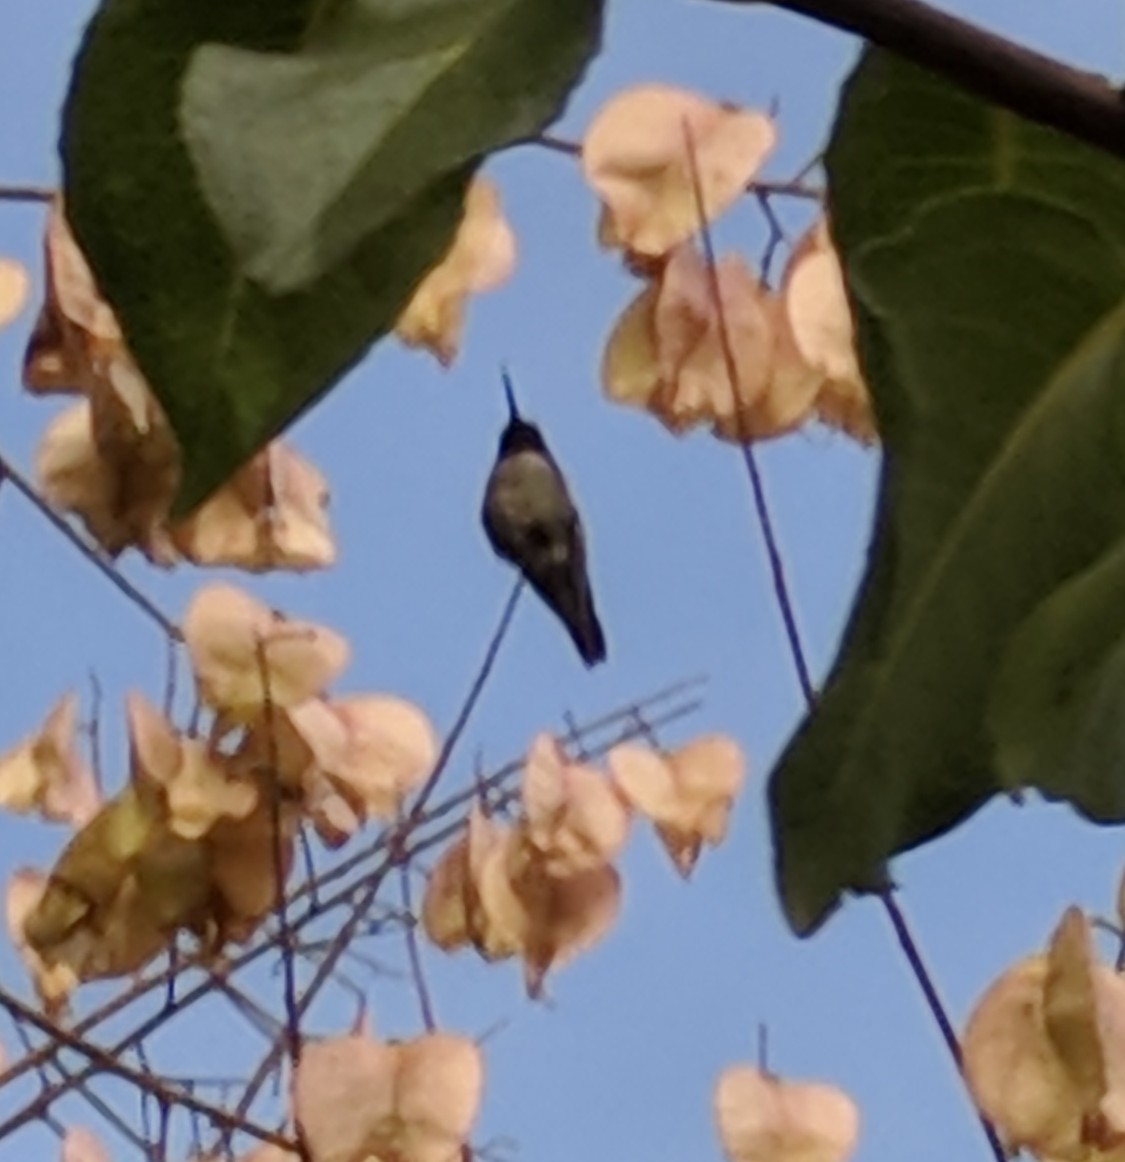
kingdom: Animalia
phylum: Chordata
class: Aves
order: Apodiformes
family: Trochilidae
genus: Calypte
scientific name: Calypte anna
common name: Anna's hummingbird
